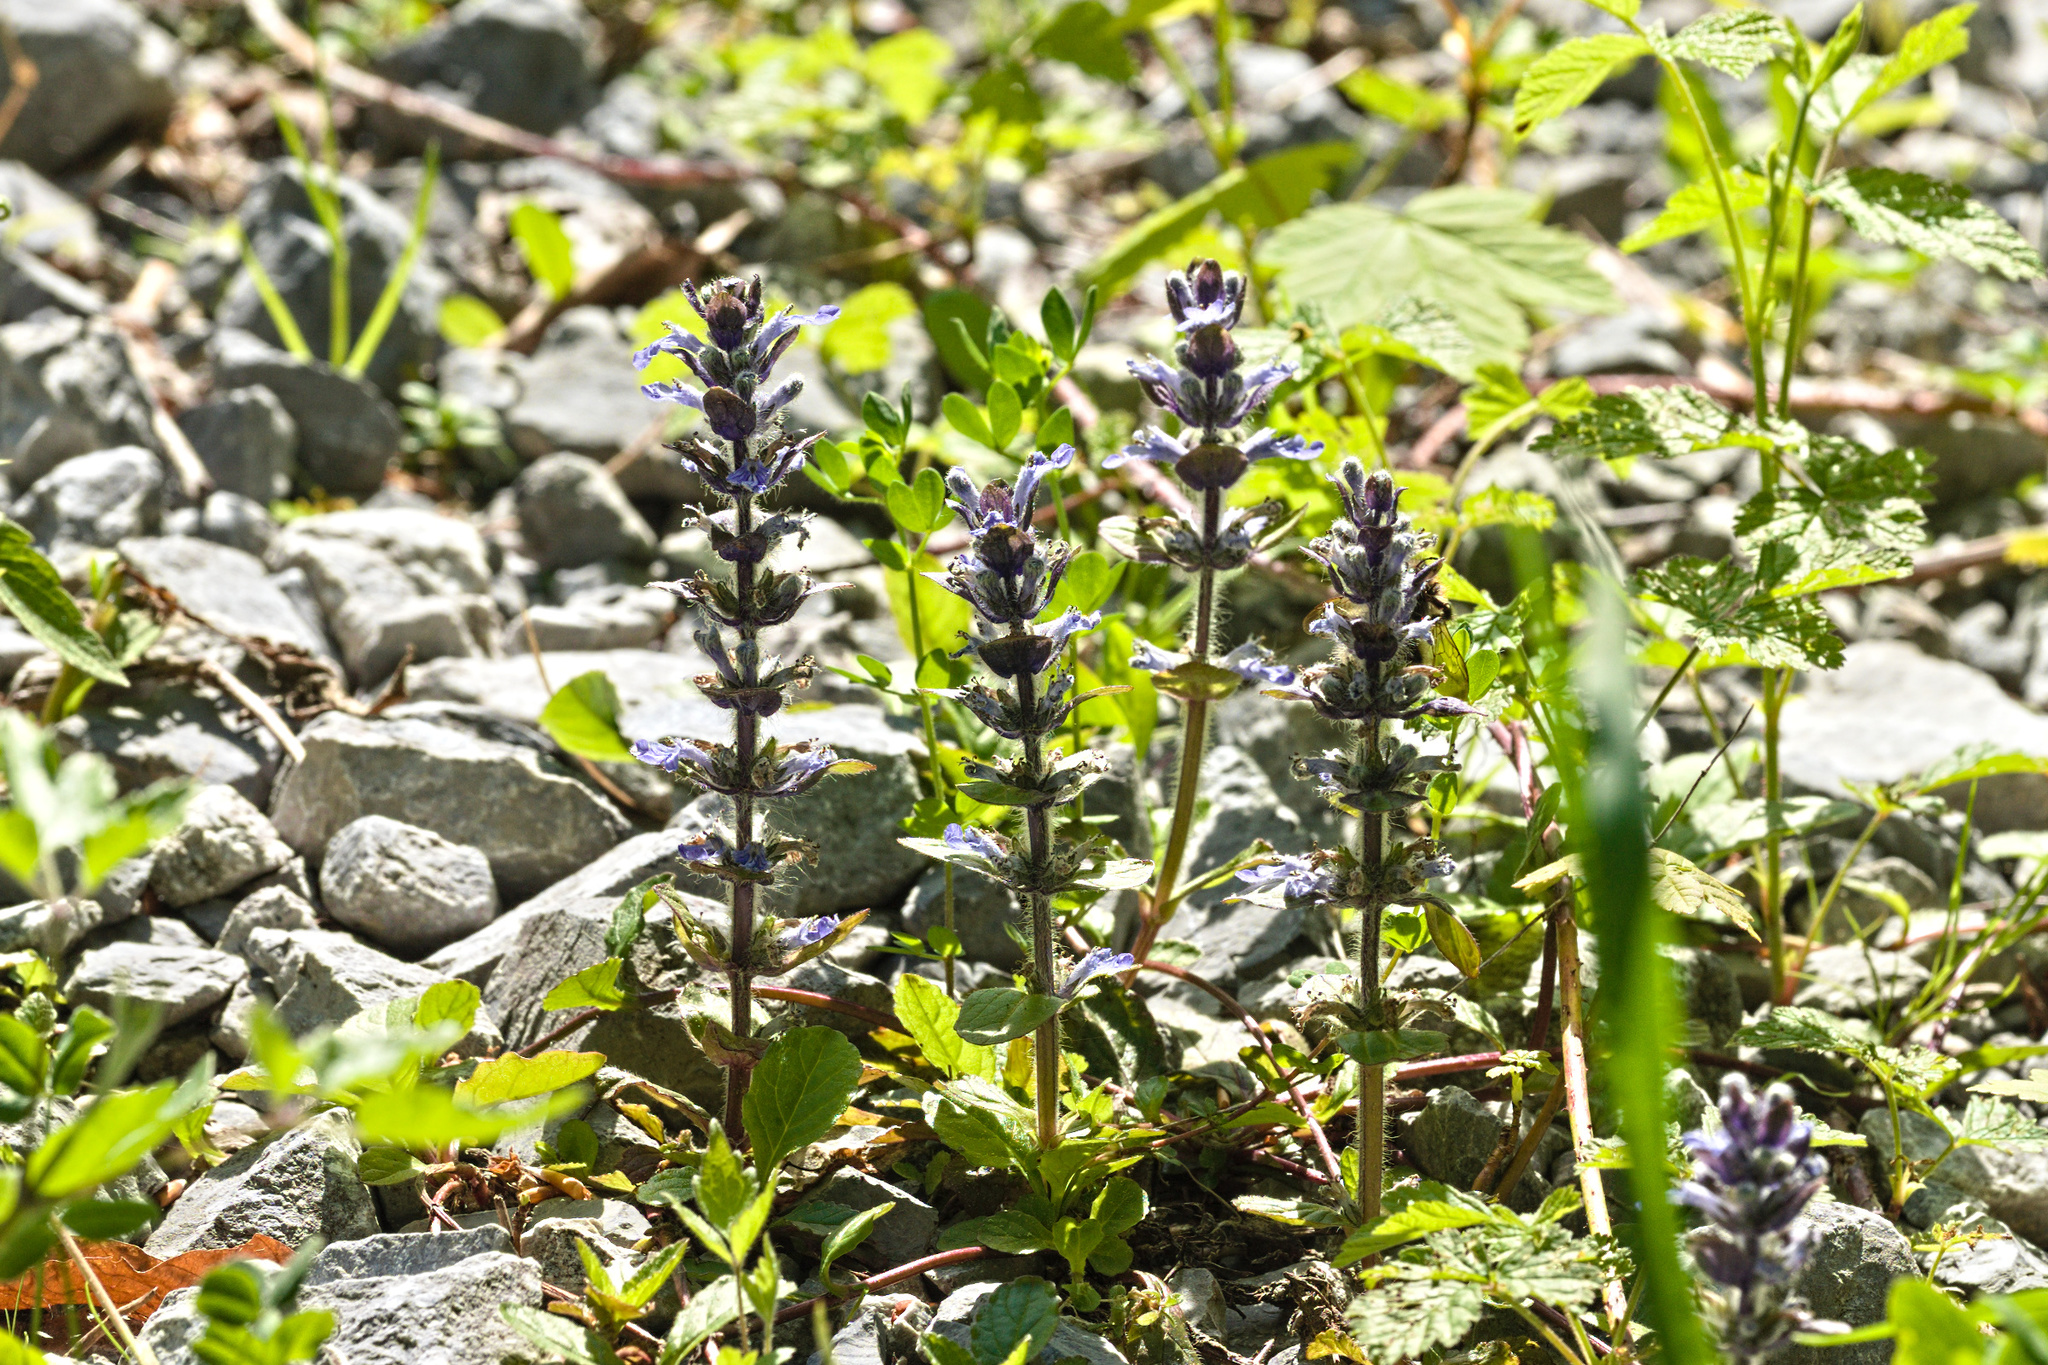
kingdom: Plantae
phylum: Tracheophyta
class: Magnoliopsida
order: Lamiales
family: Lamiaceae
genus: Ajuga
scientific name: Ajuga reptans
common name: Bugle
